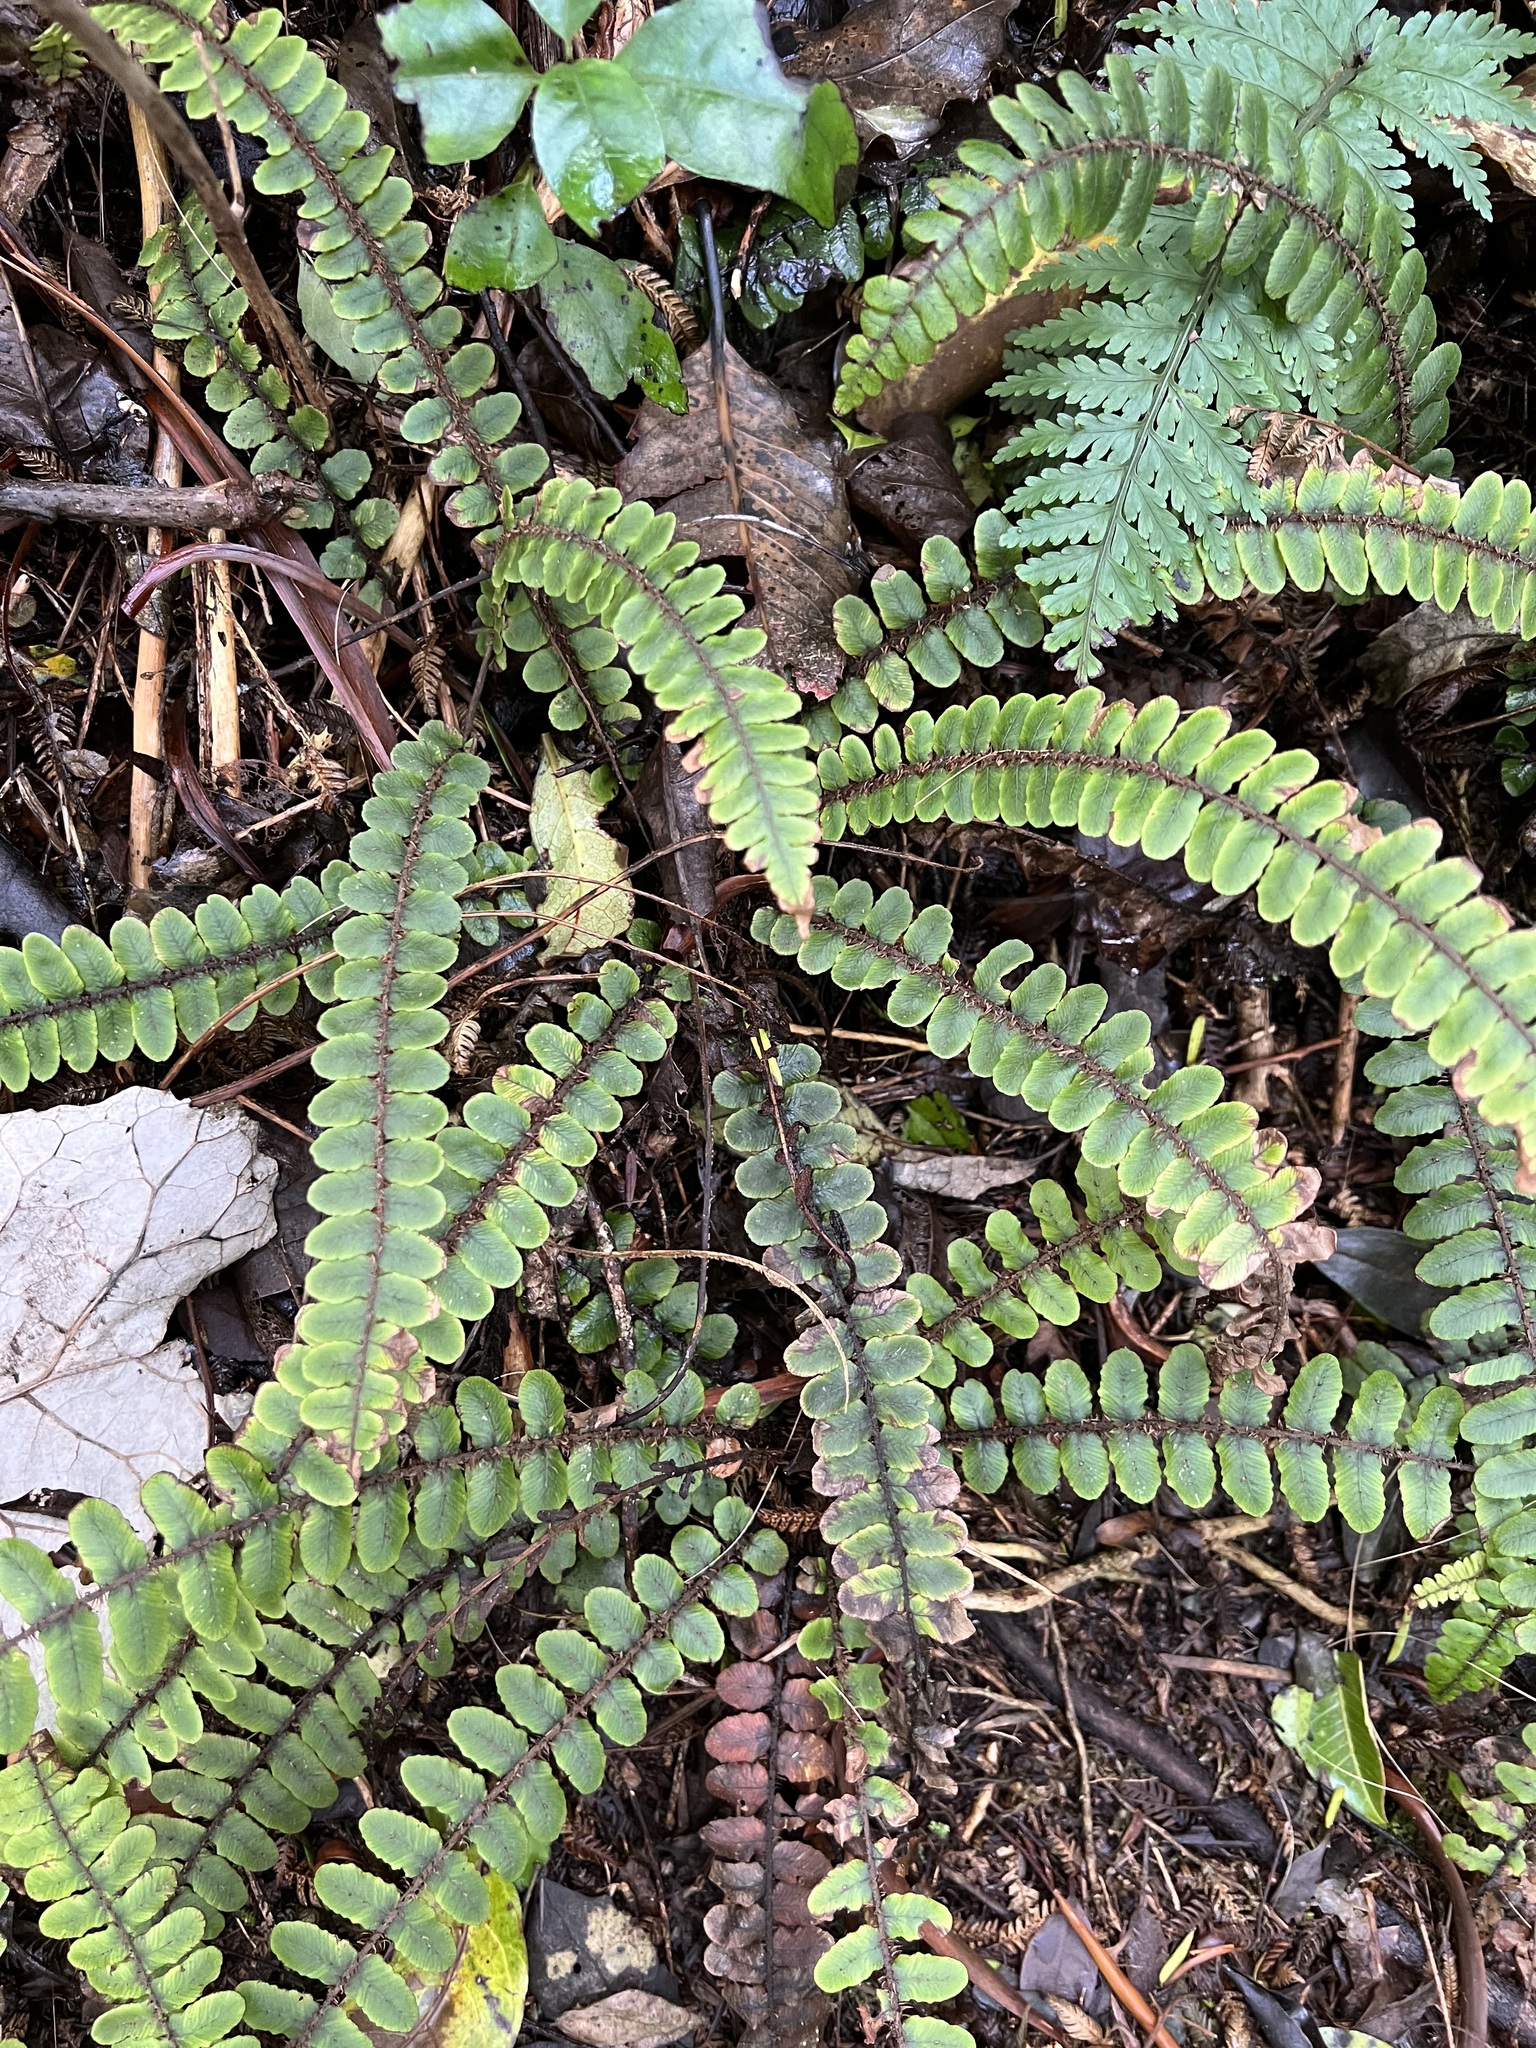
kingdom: Plantae
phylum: Tracheophyta
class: Polypodiopsida
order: Polypodiales
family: Blechnaceae
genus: Cranfillia
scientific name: Cranfillia fluviatilis
